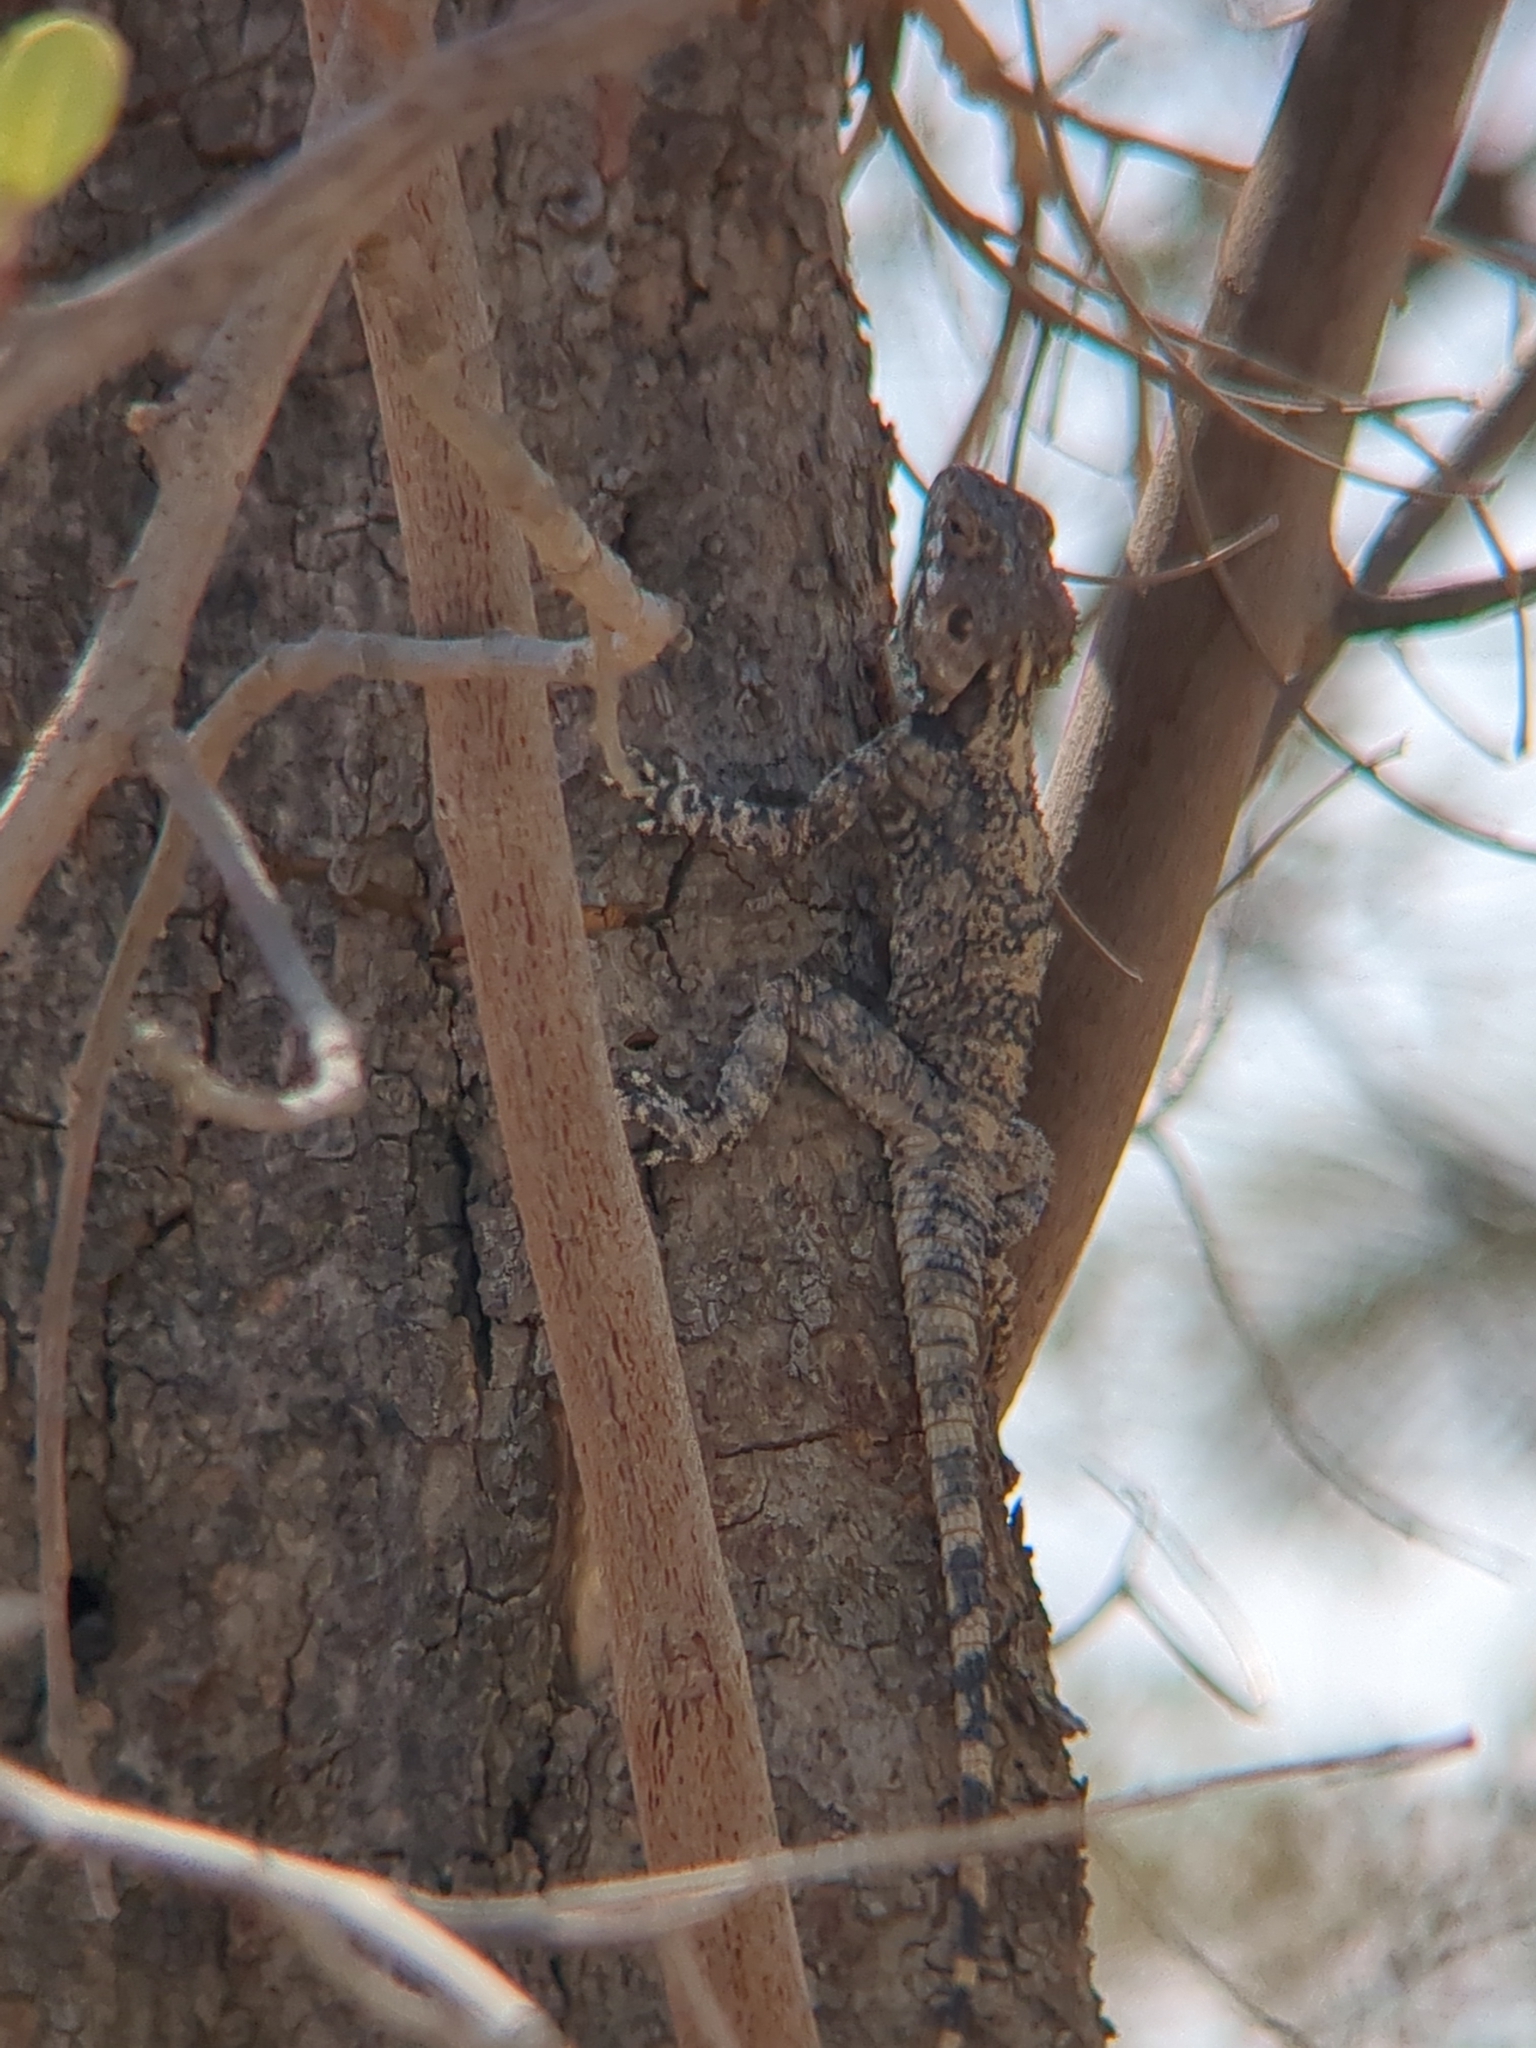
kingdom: Animalia
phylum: Chordata
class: Squamata
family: Agamidae
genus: Laudakia
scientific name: Laudakia vulgaris
